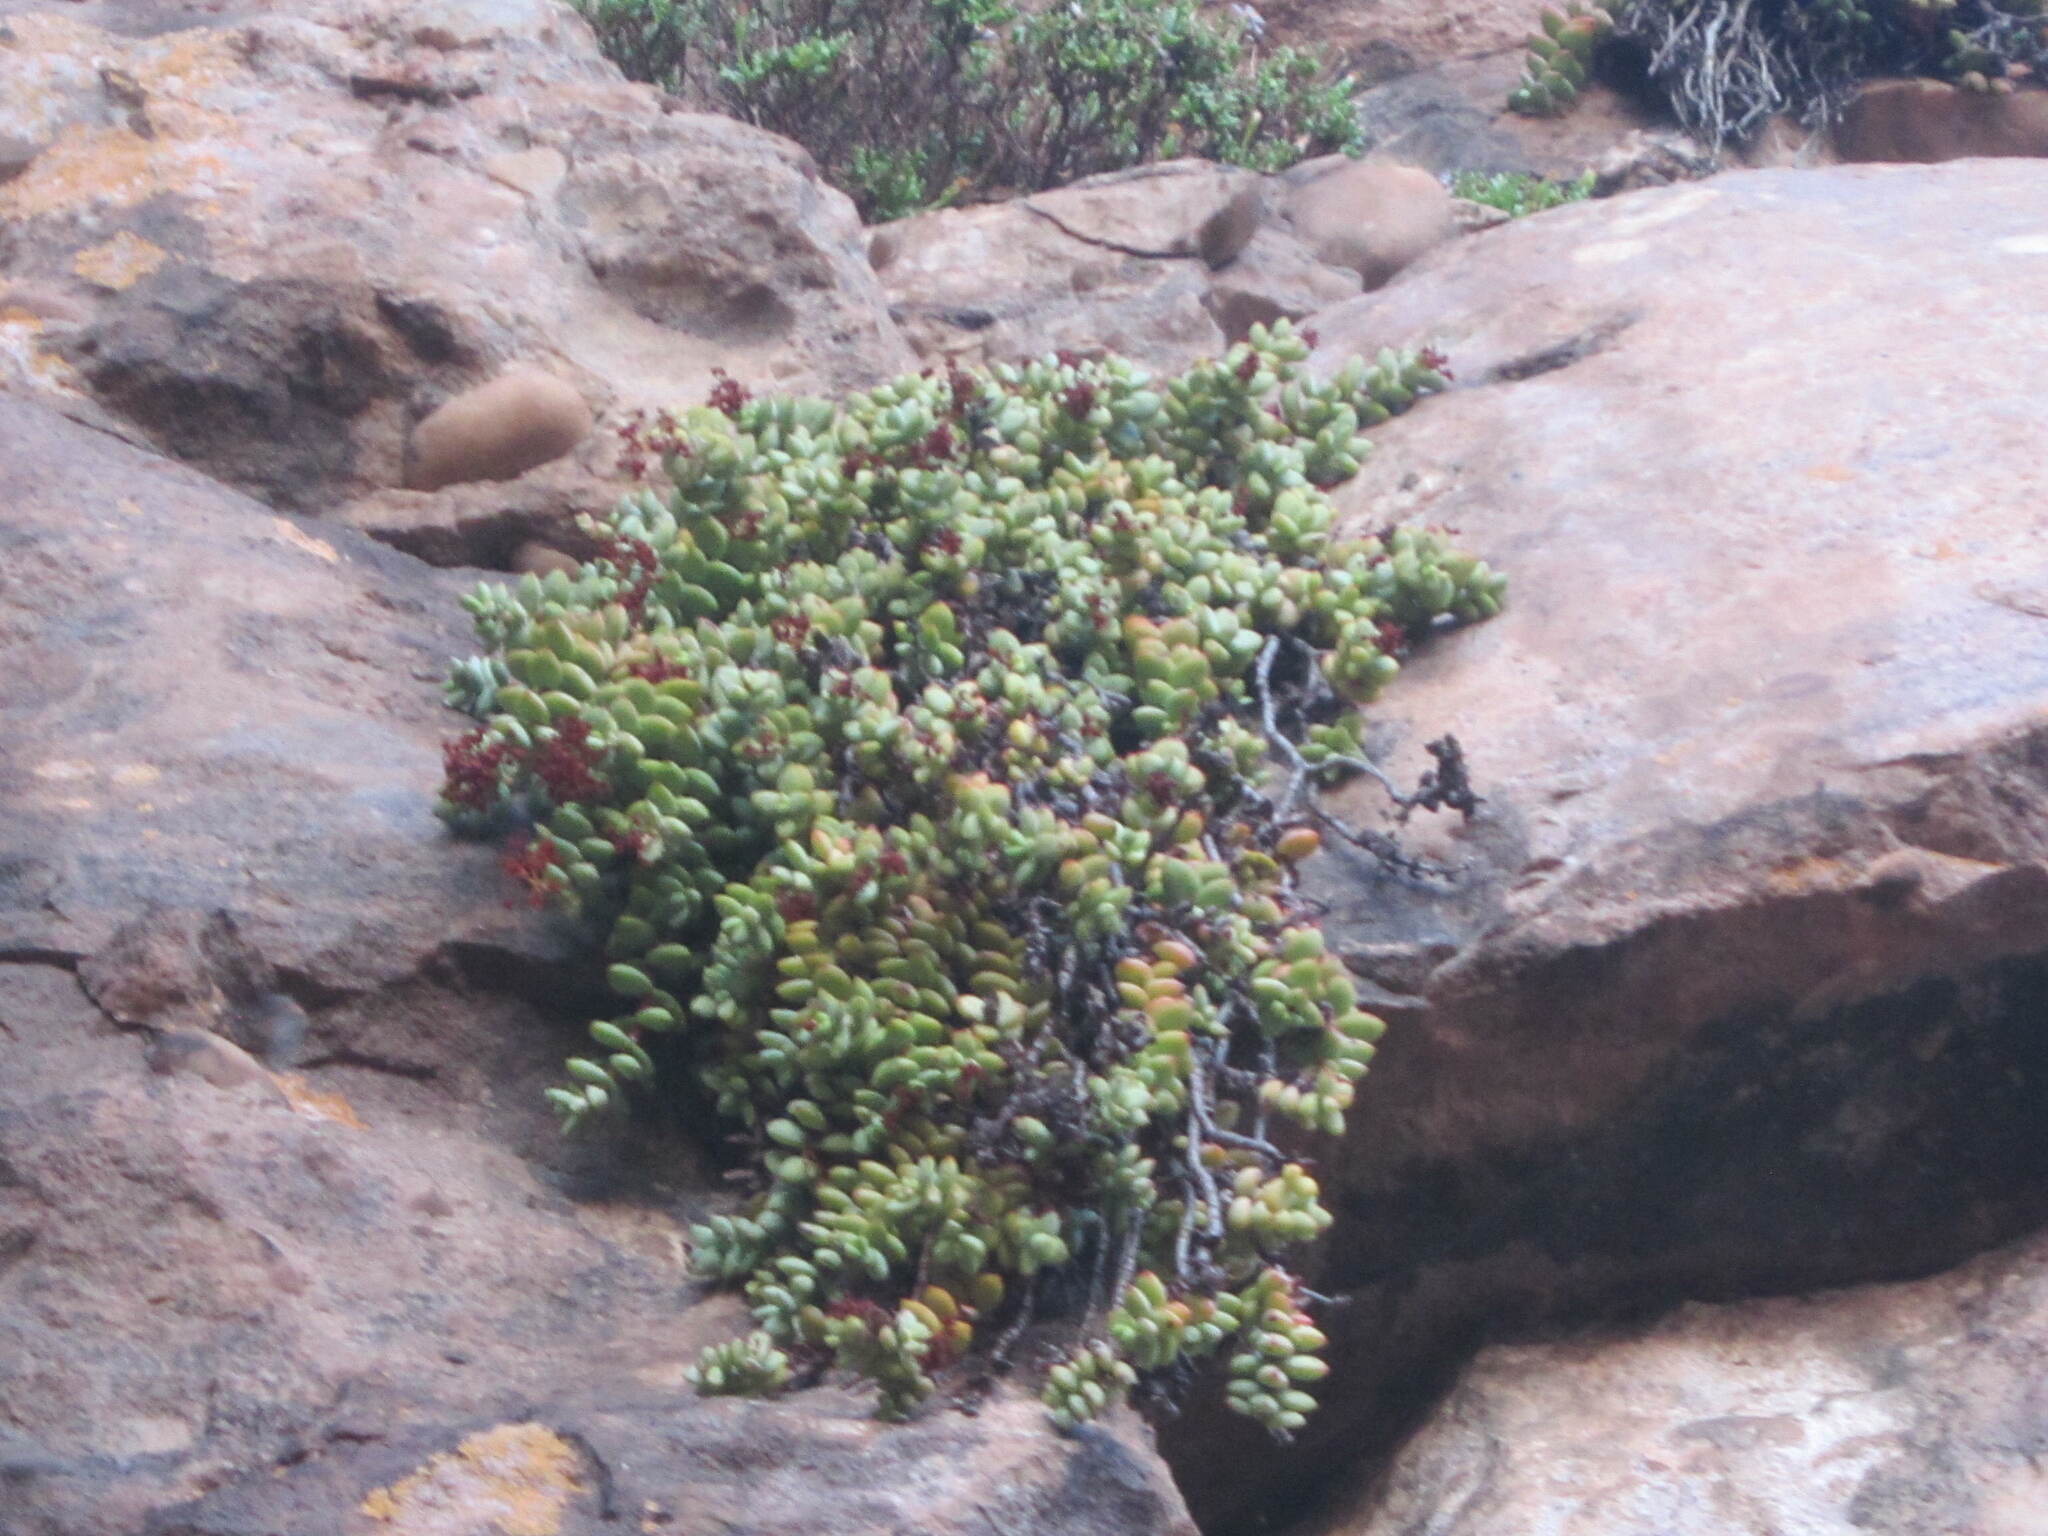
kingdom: Plantae
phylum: Tracheophyta
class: Magnoliopsida
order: Saxifragales
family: Crassulaceae
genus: Crassula
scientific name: Crassula rupestris
